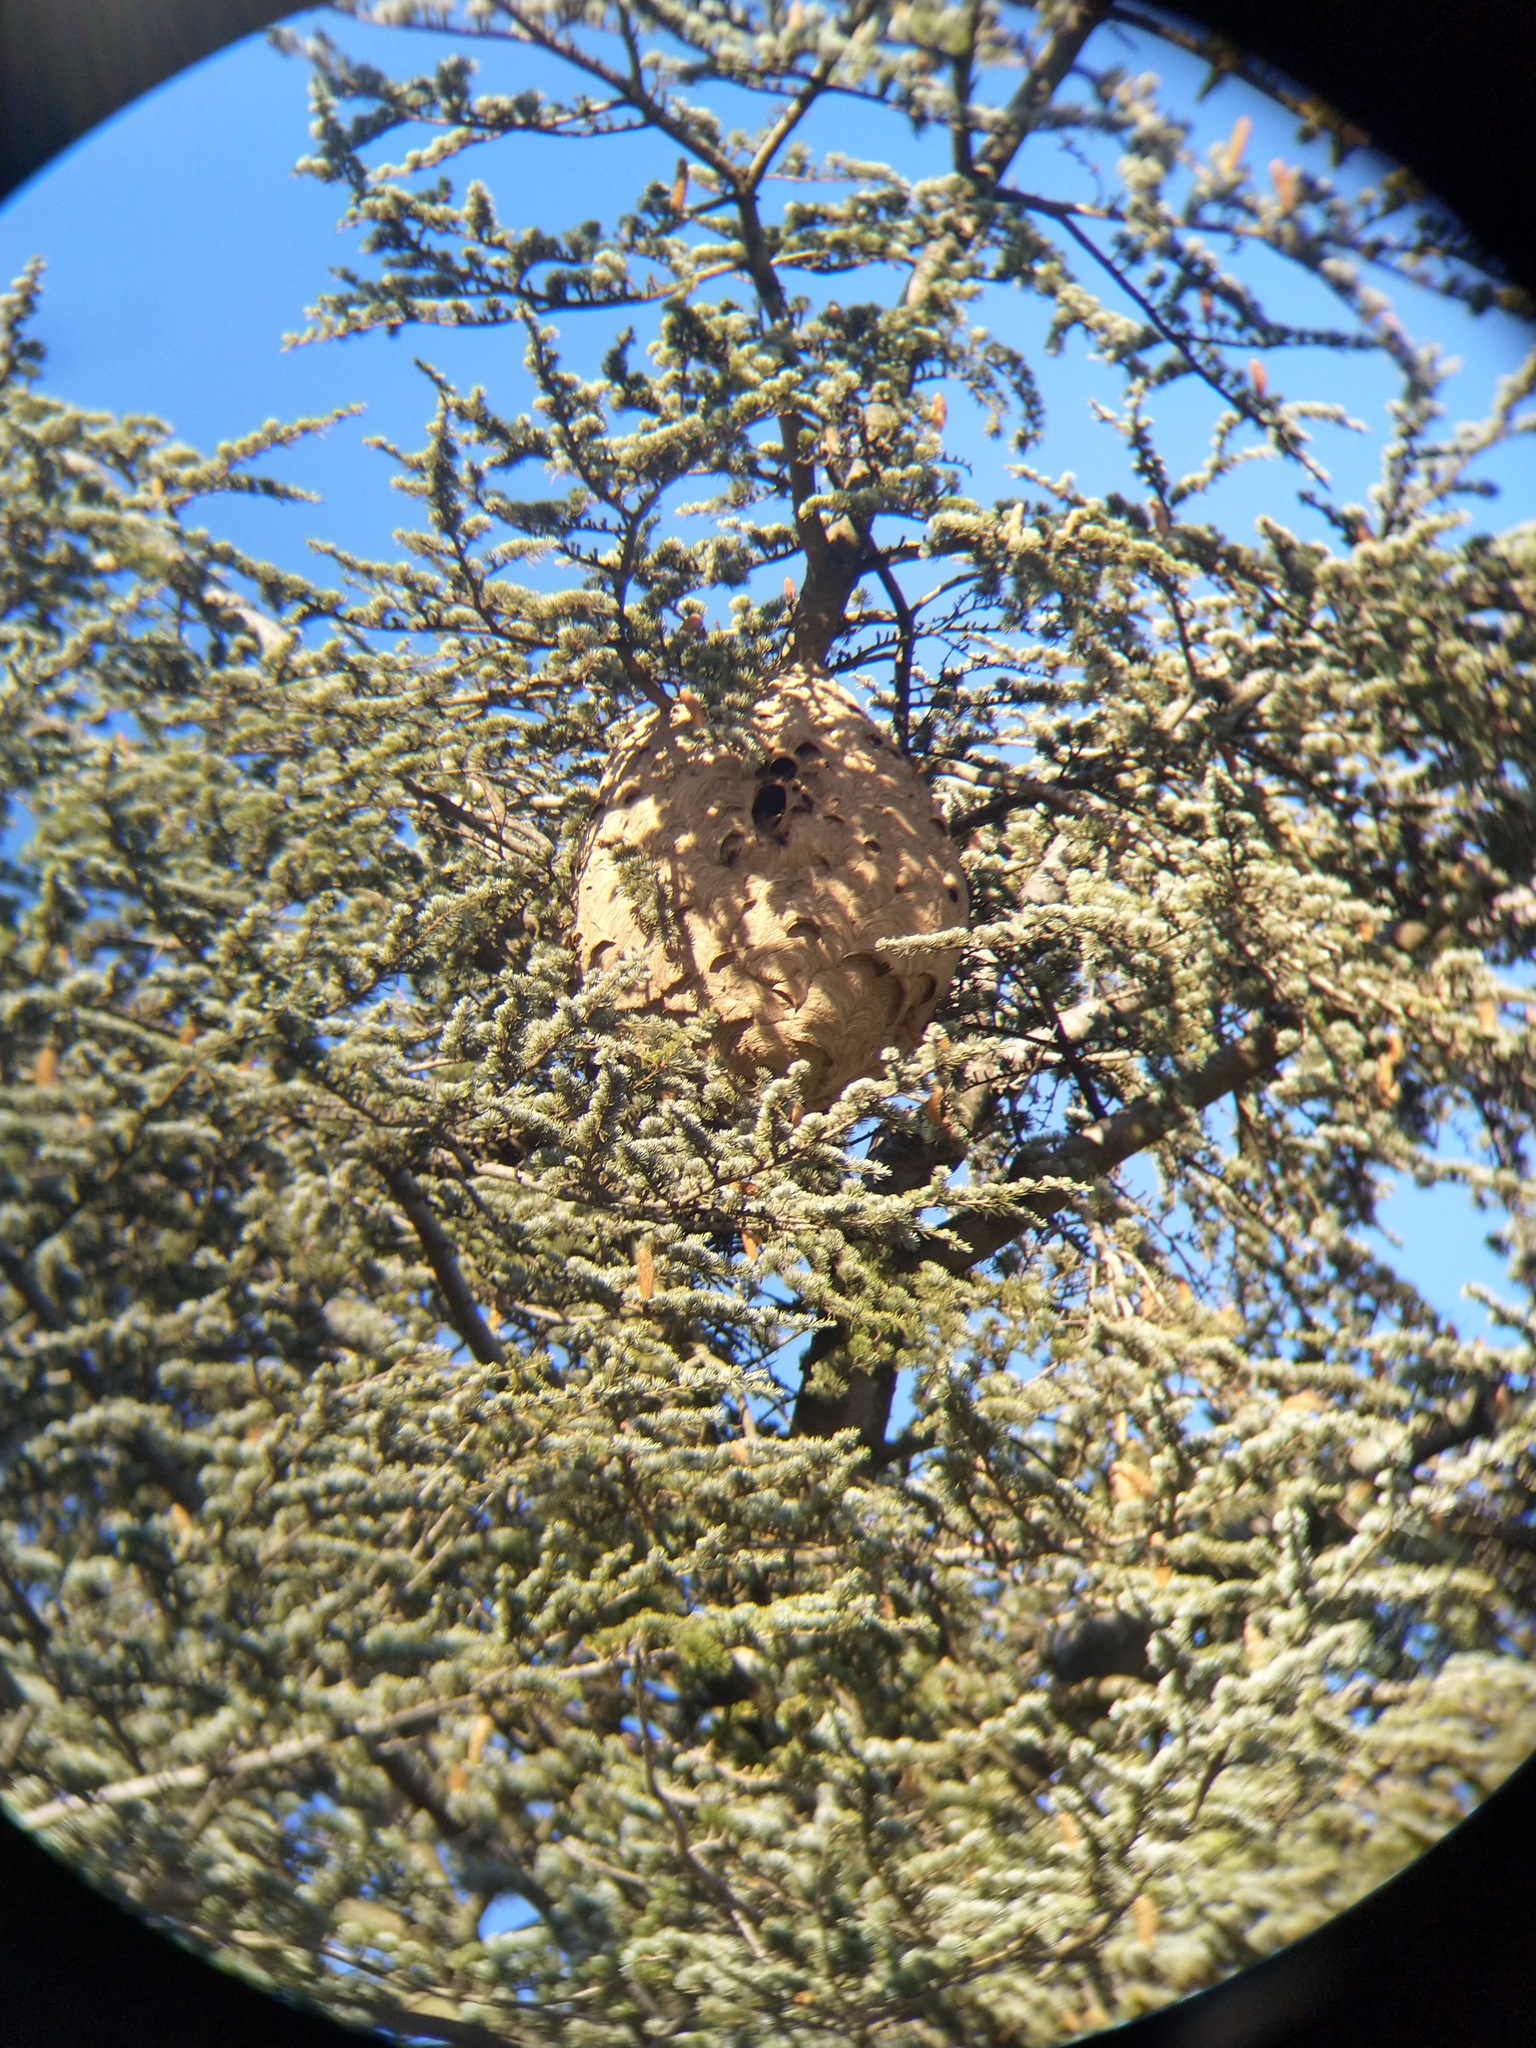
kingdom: Animalia
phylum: Arthropoda
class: Insecta
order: Hymenoptera
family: Vespidae
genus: Vespa
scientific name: Vespa velutina
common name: Asian hornet
